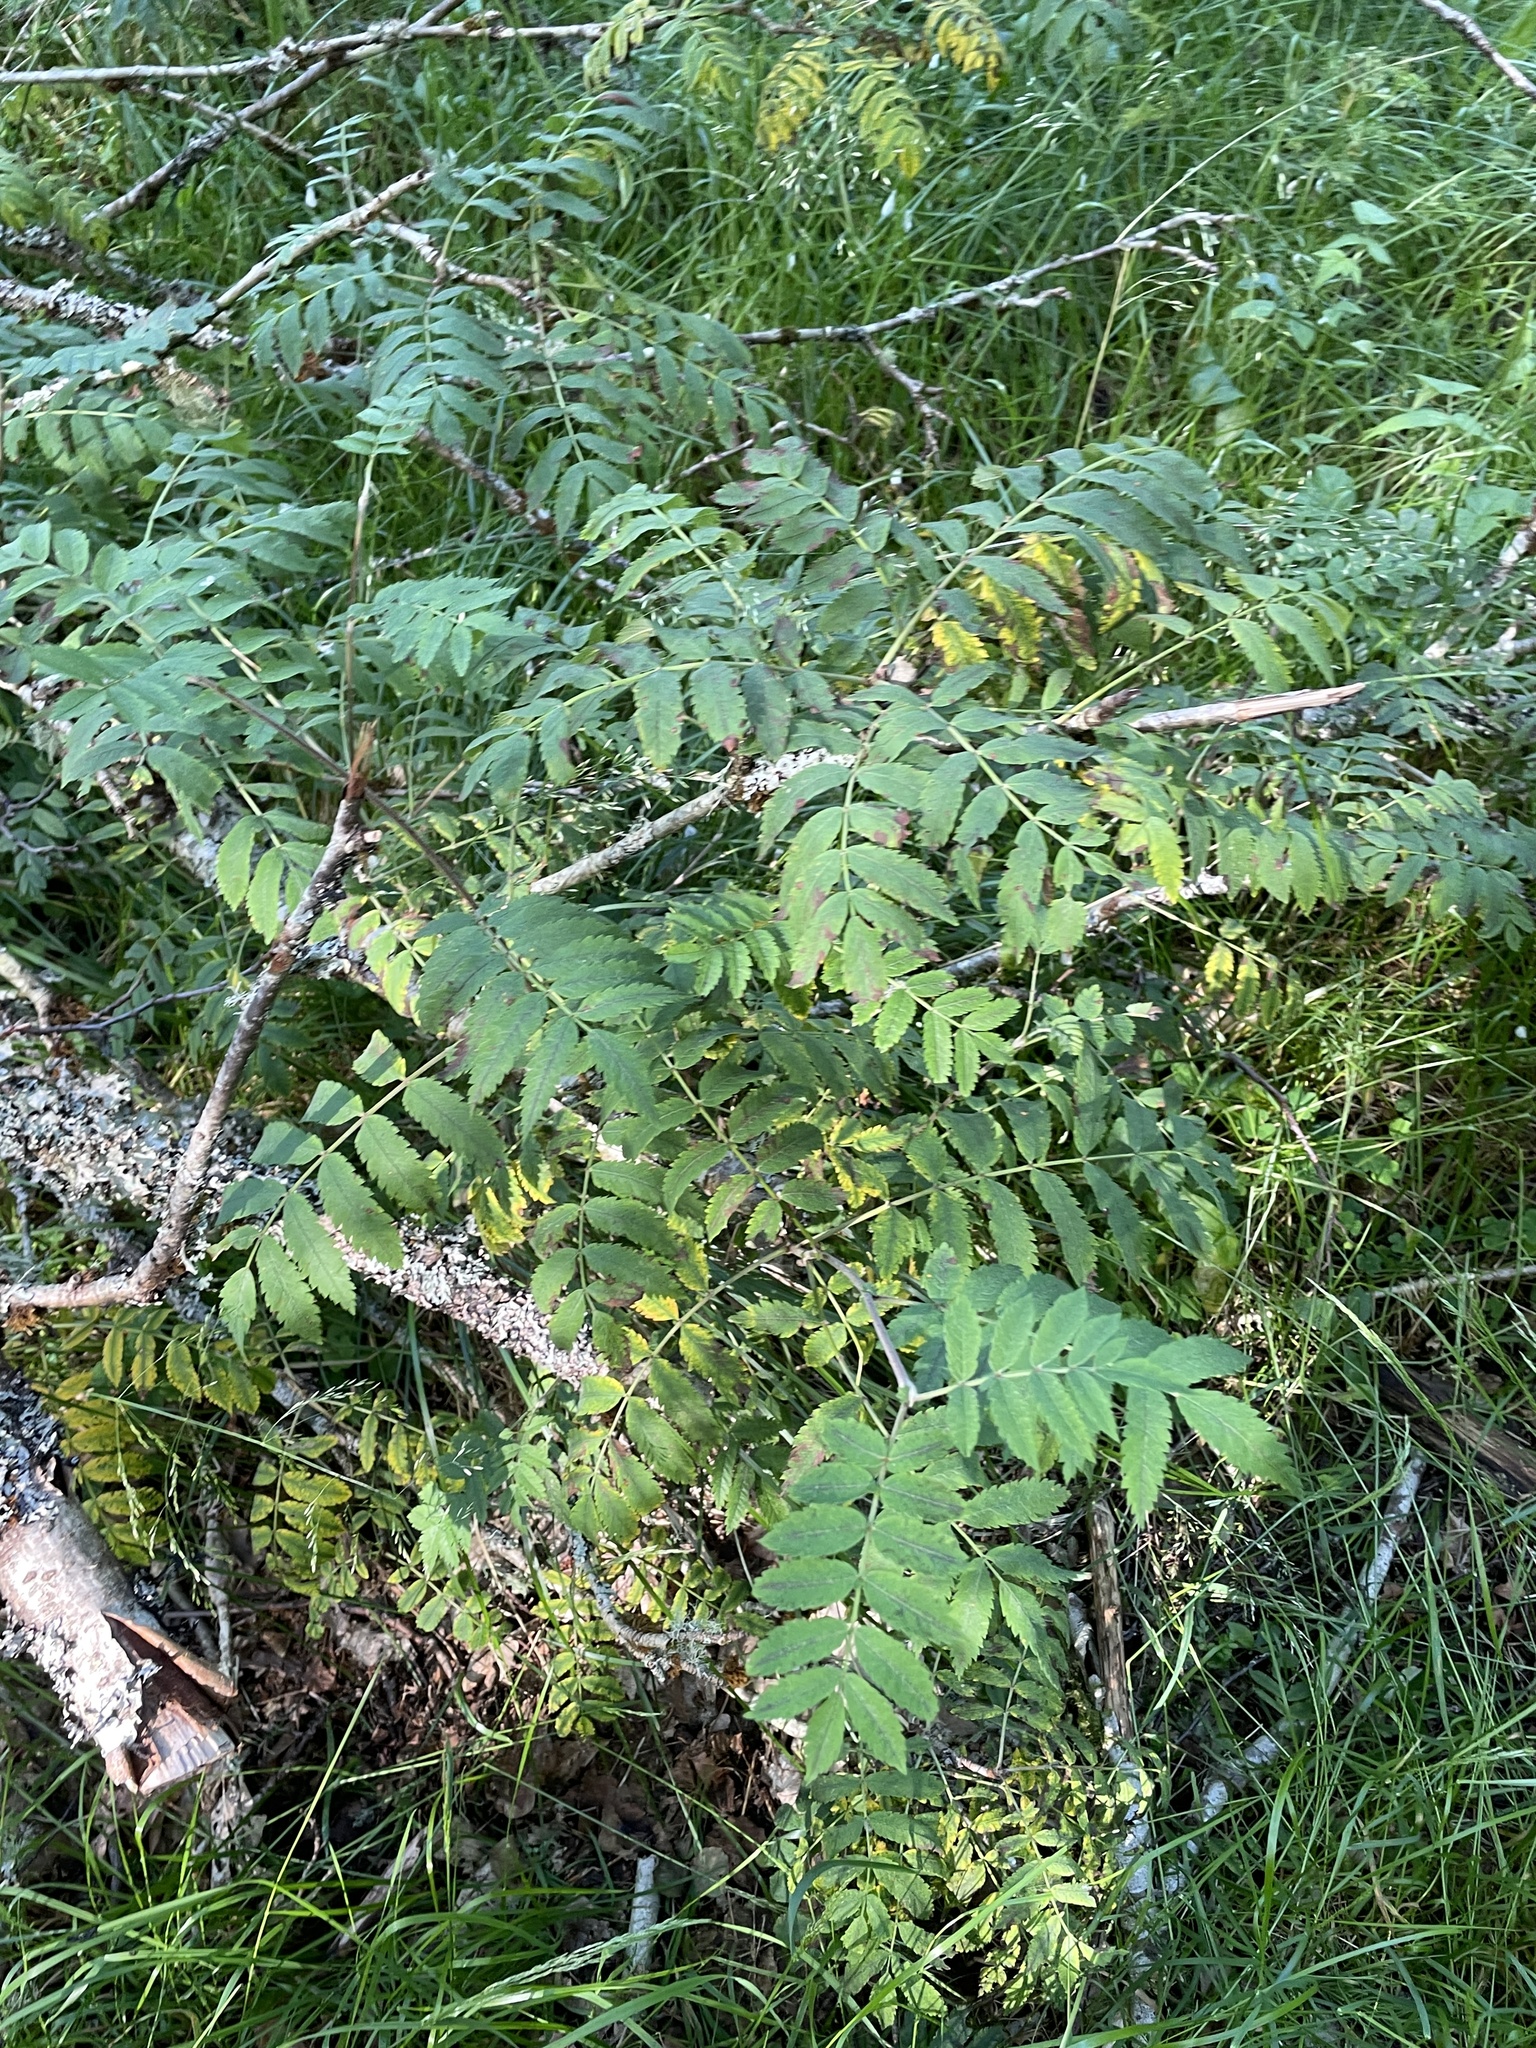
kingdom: Plantae
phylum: Tracheophyta
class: Magnoliopsida
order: Rosales
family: Rosaceae
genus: Sorbus
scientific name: Sorbus aucuparia
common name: Rowan
